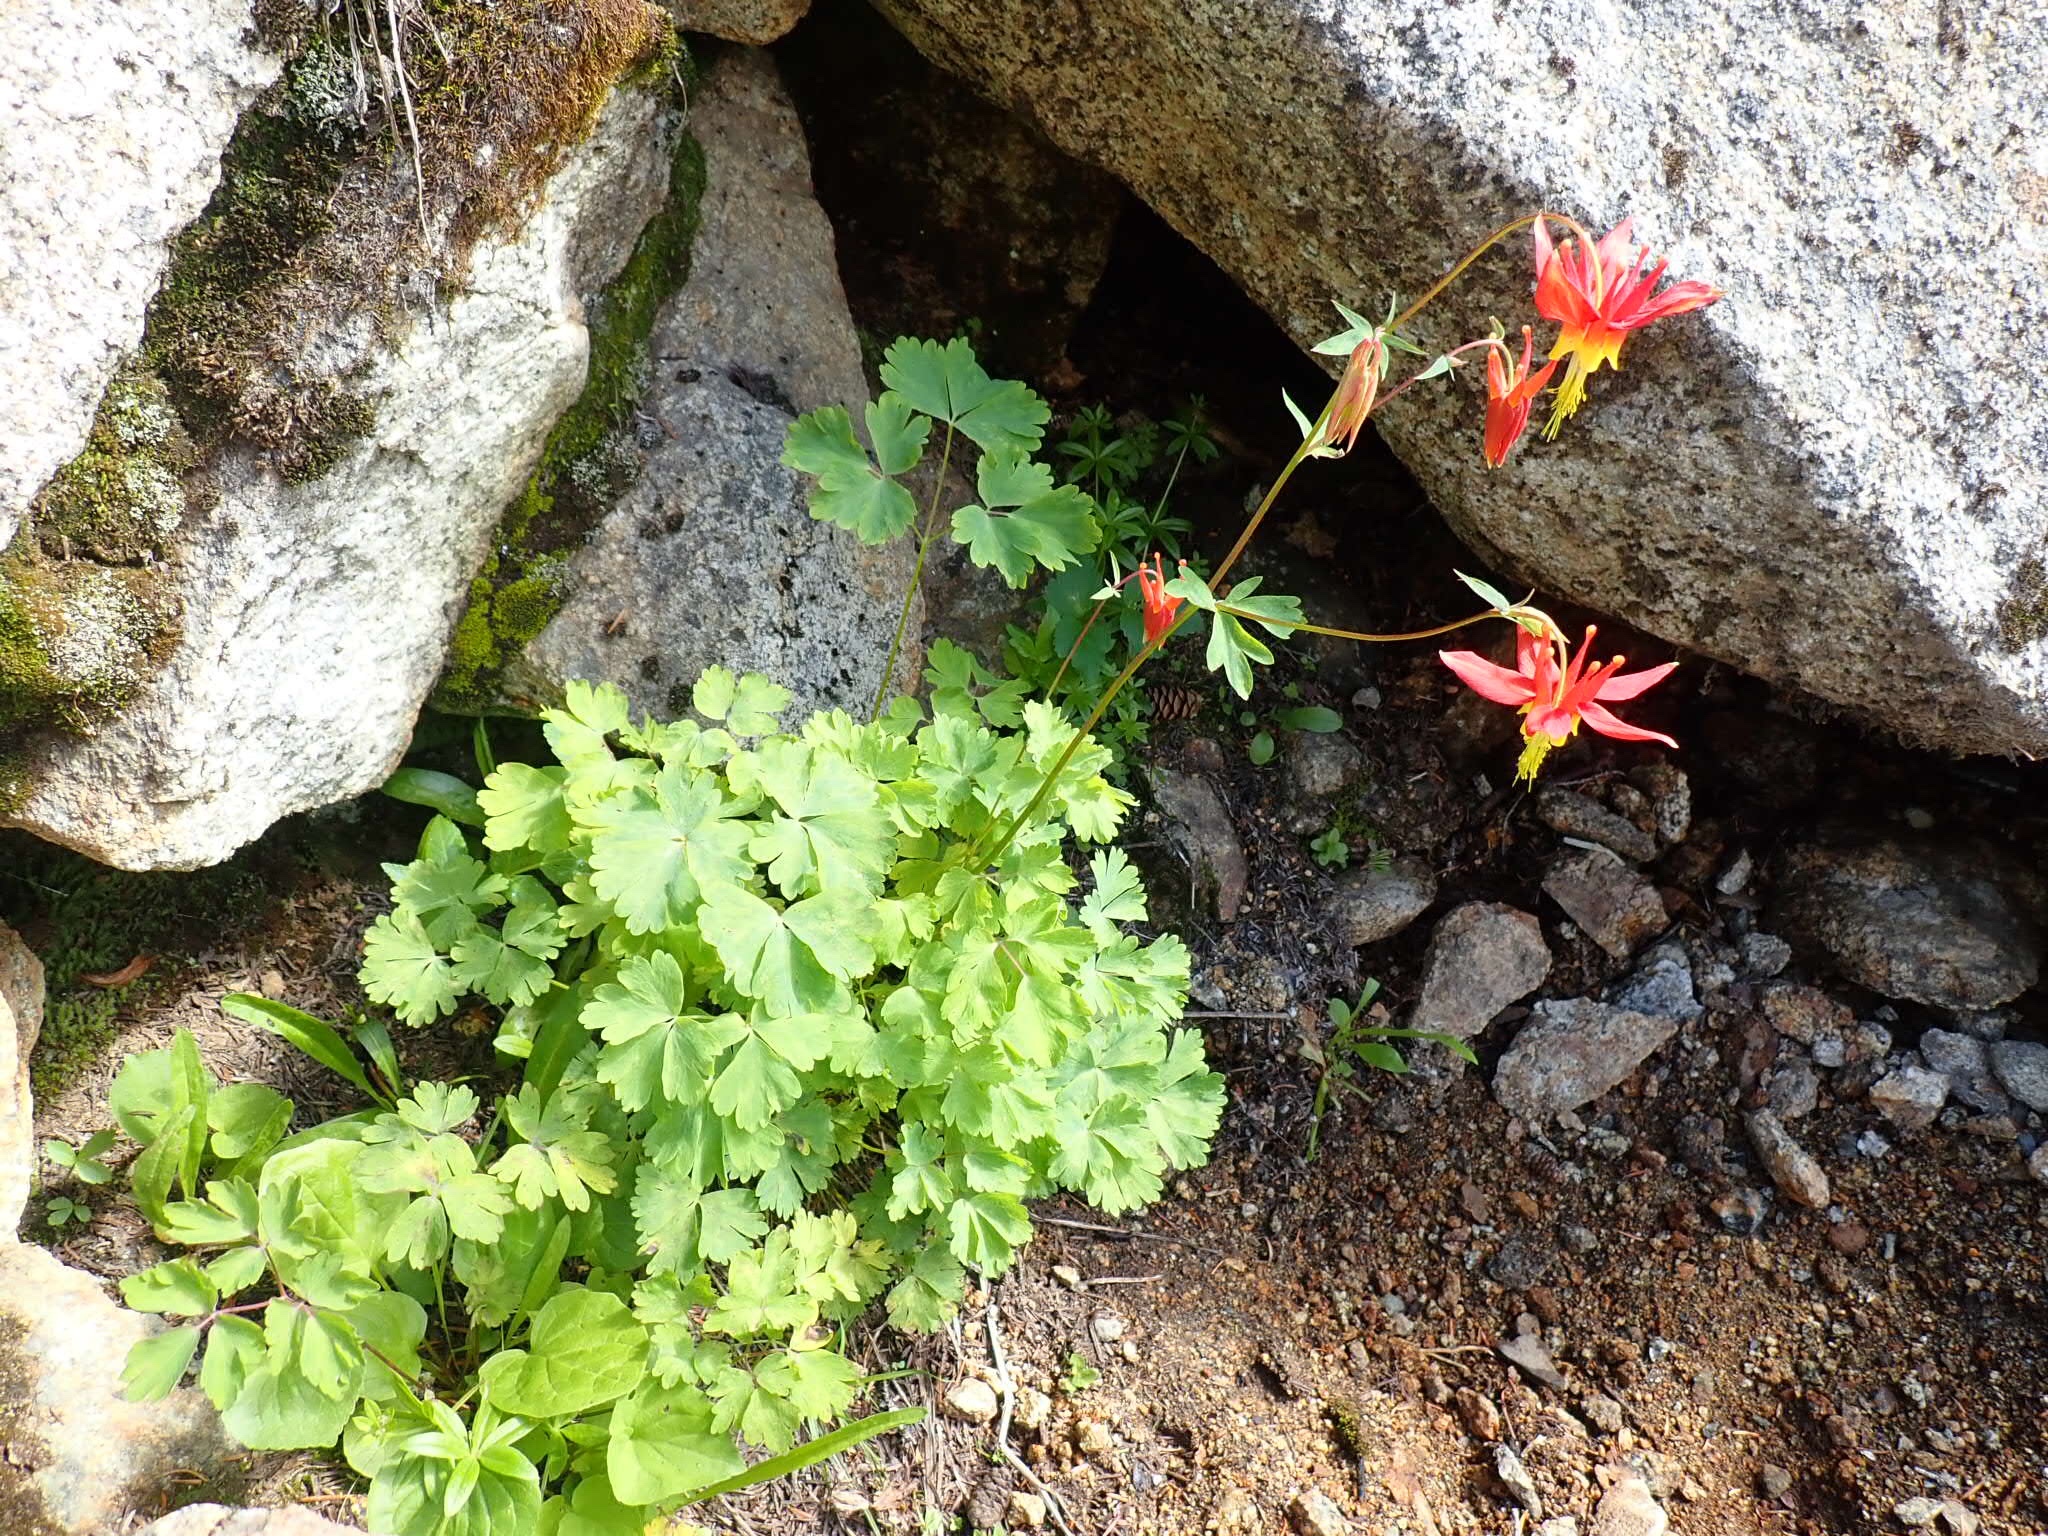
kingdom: Plantae
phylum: Tracheophyta
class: Magnoliopsida
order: Ranunculales
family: Ranunculaceae
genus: Aquilegia
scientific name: Aquilegia formosa
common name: Sitka columbine
